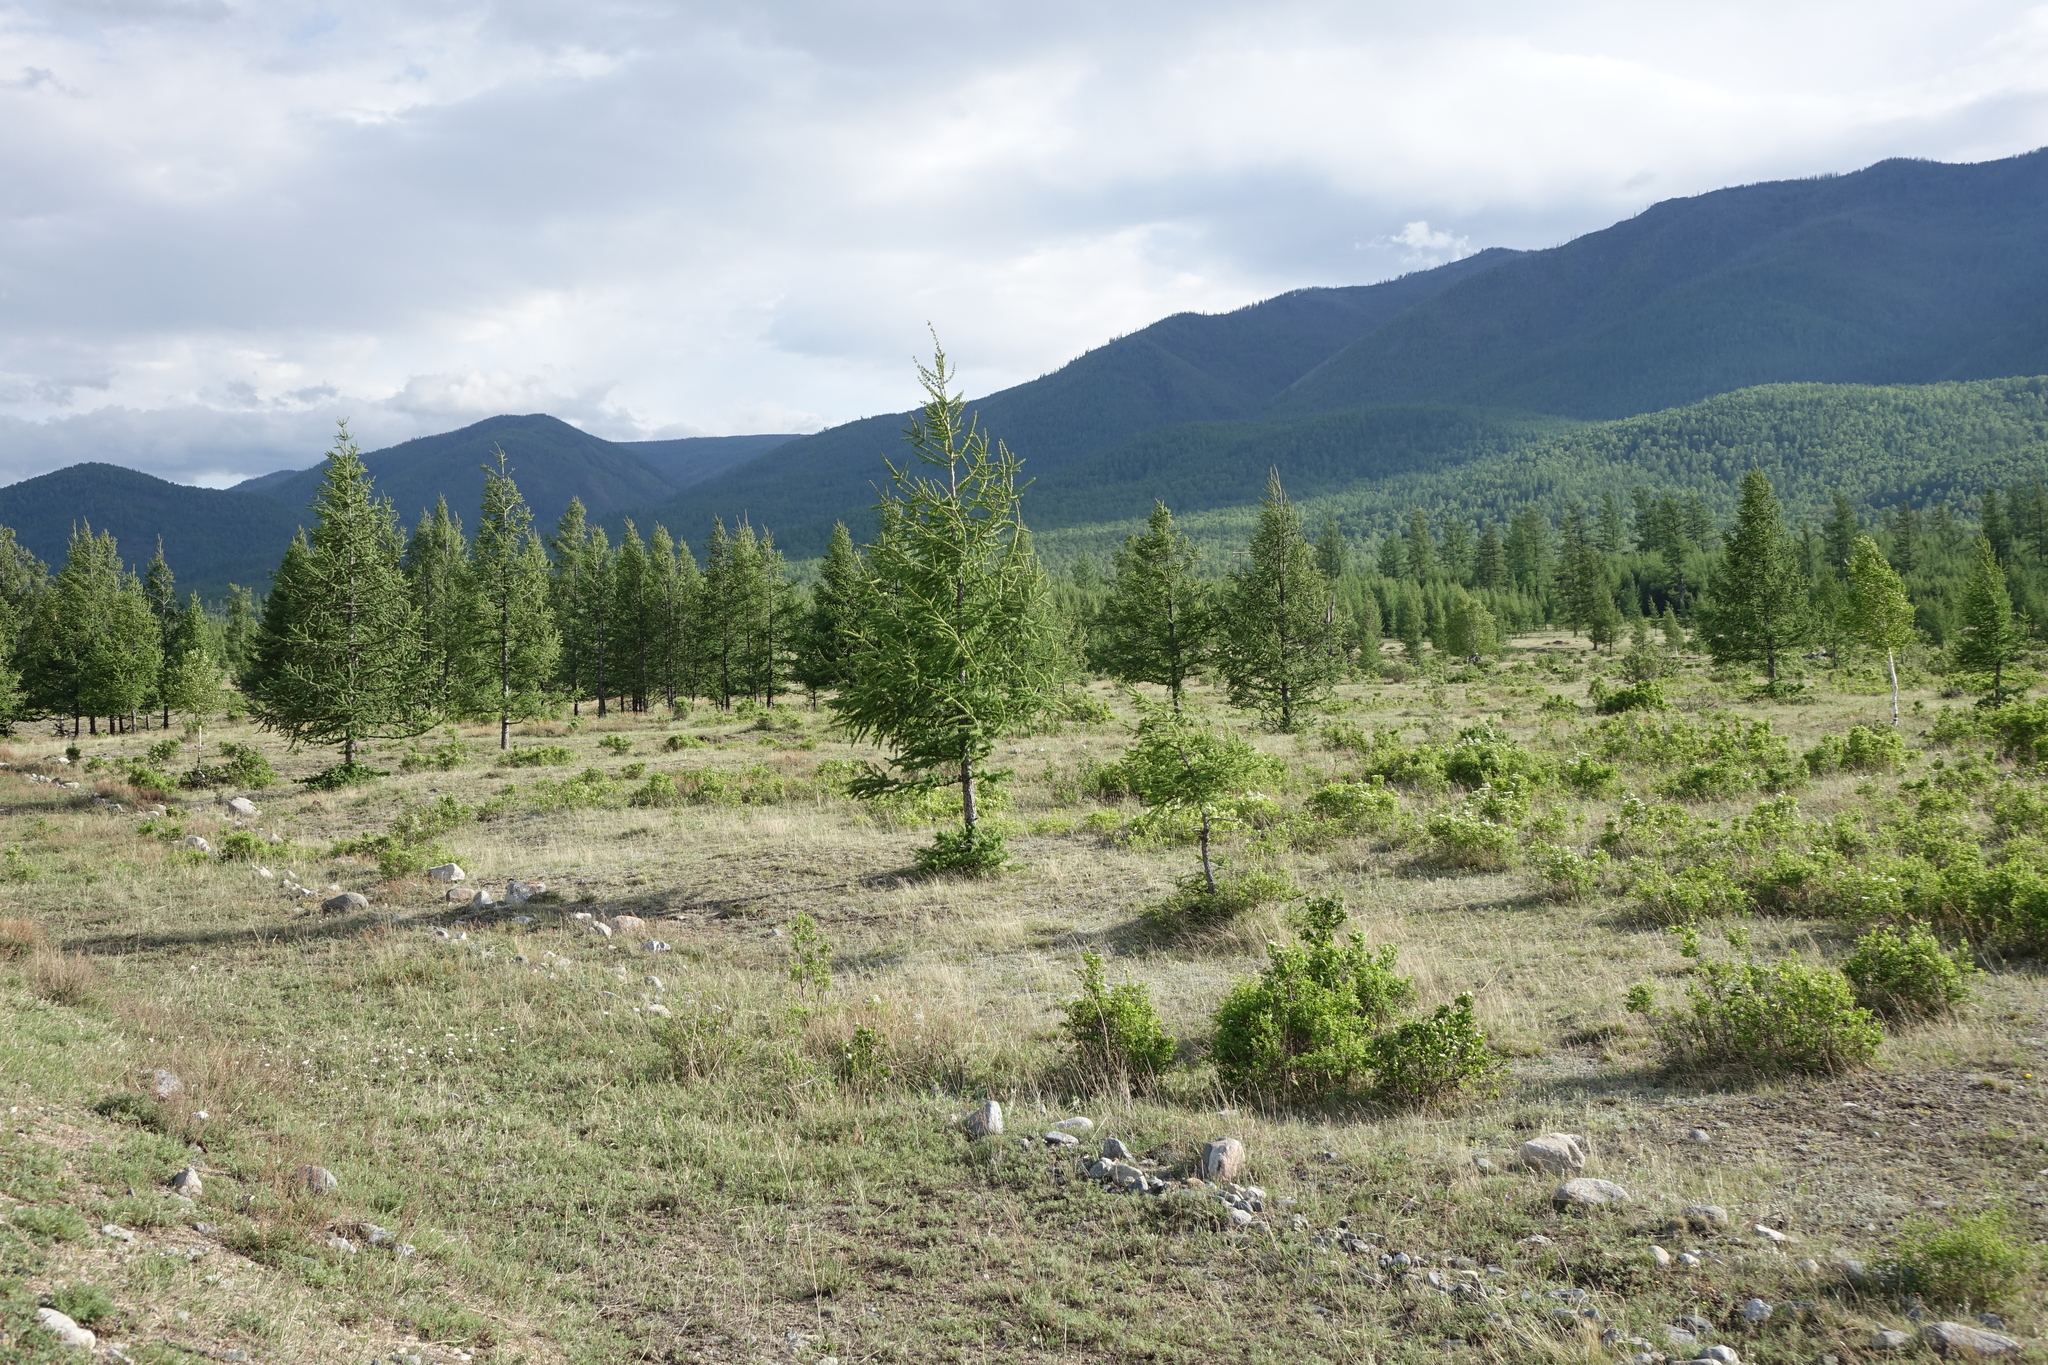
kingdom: Plantae
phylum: Tracheophyta
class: Pinopsida
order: Pinales
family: Pinaceae
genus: Larix
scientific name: Larix sibirica
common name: Siberian larch
